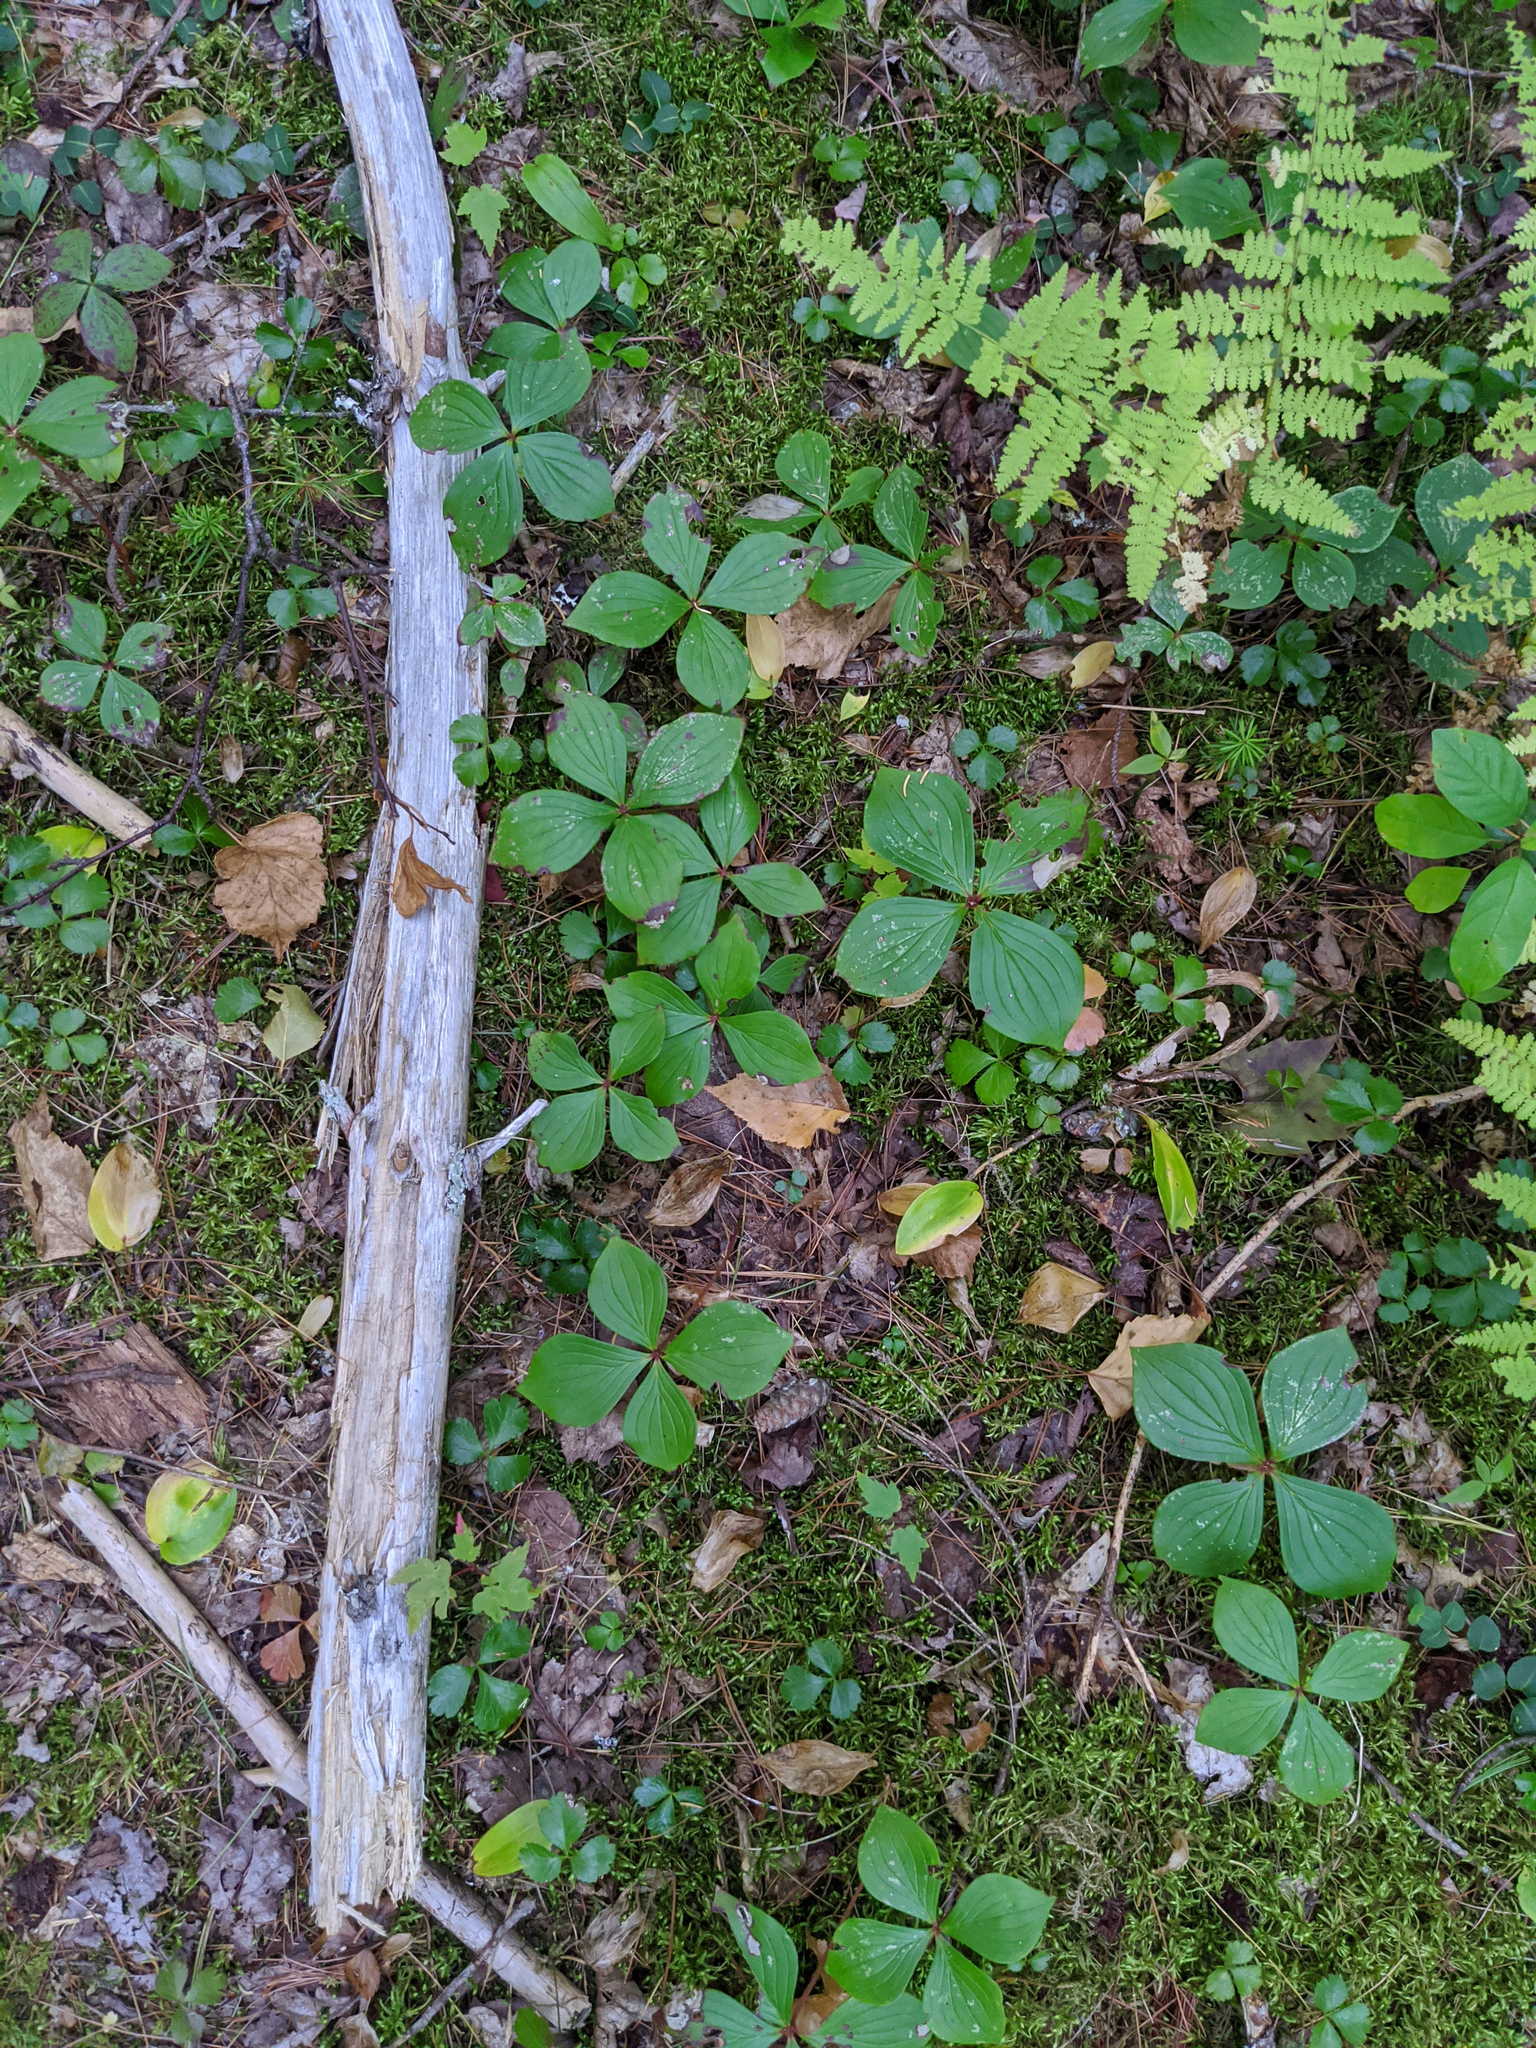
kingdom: Plantae
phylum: Tracheophyta
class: Magnoliopsida
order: Cornales
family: Cornaceae
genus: Cornus
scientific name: Cornus canadensis
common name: Creeping dogwood
